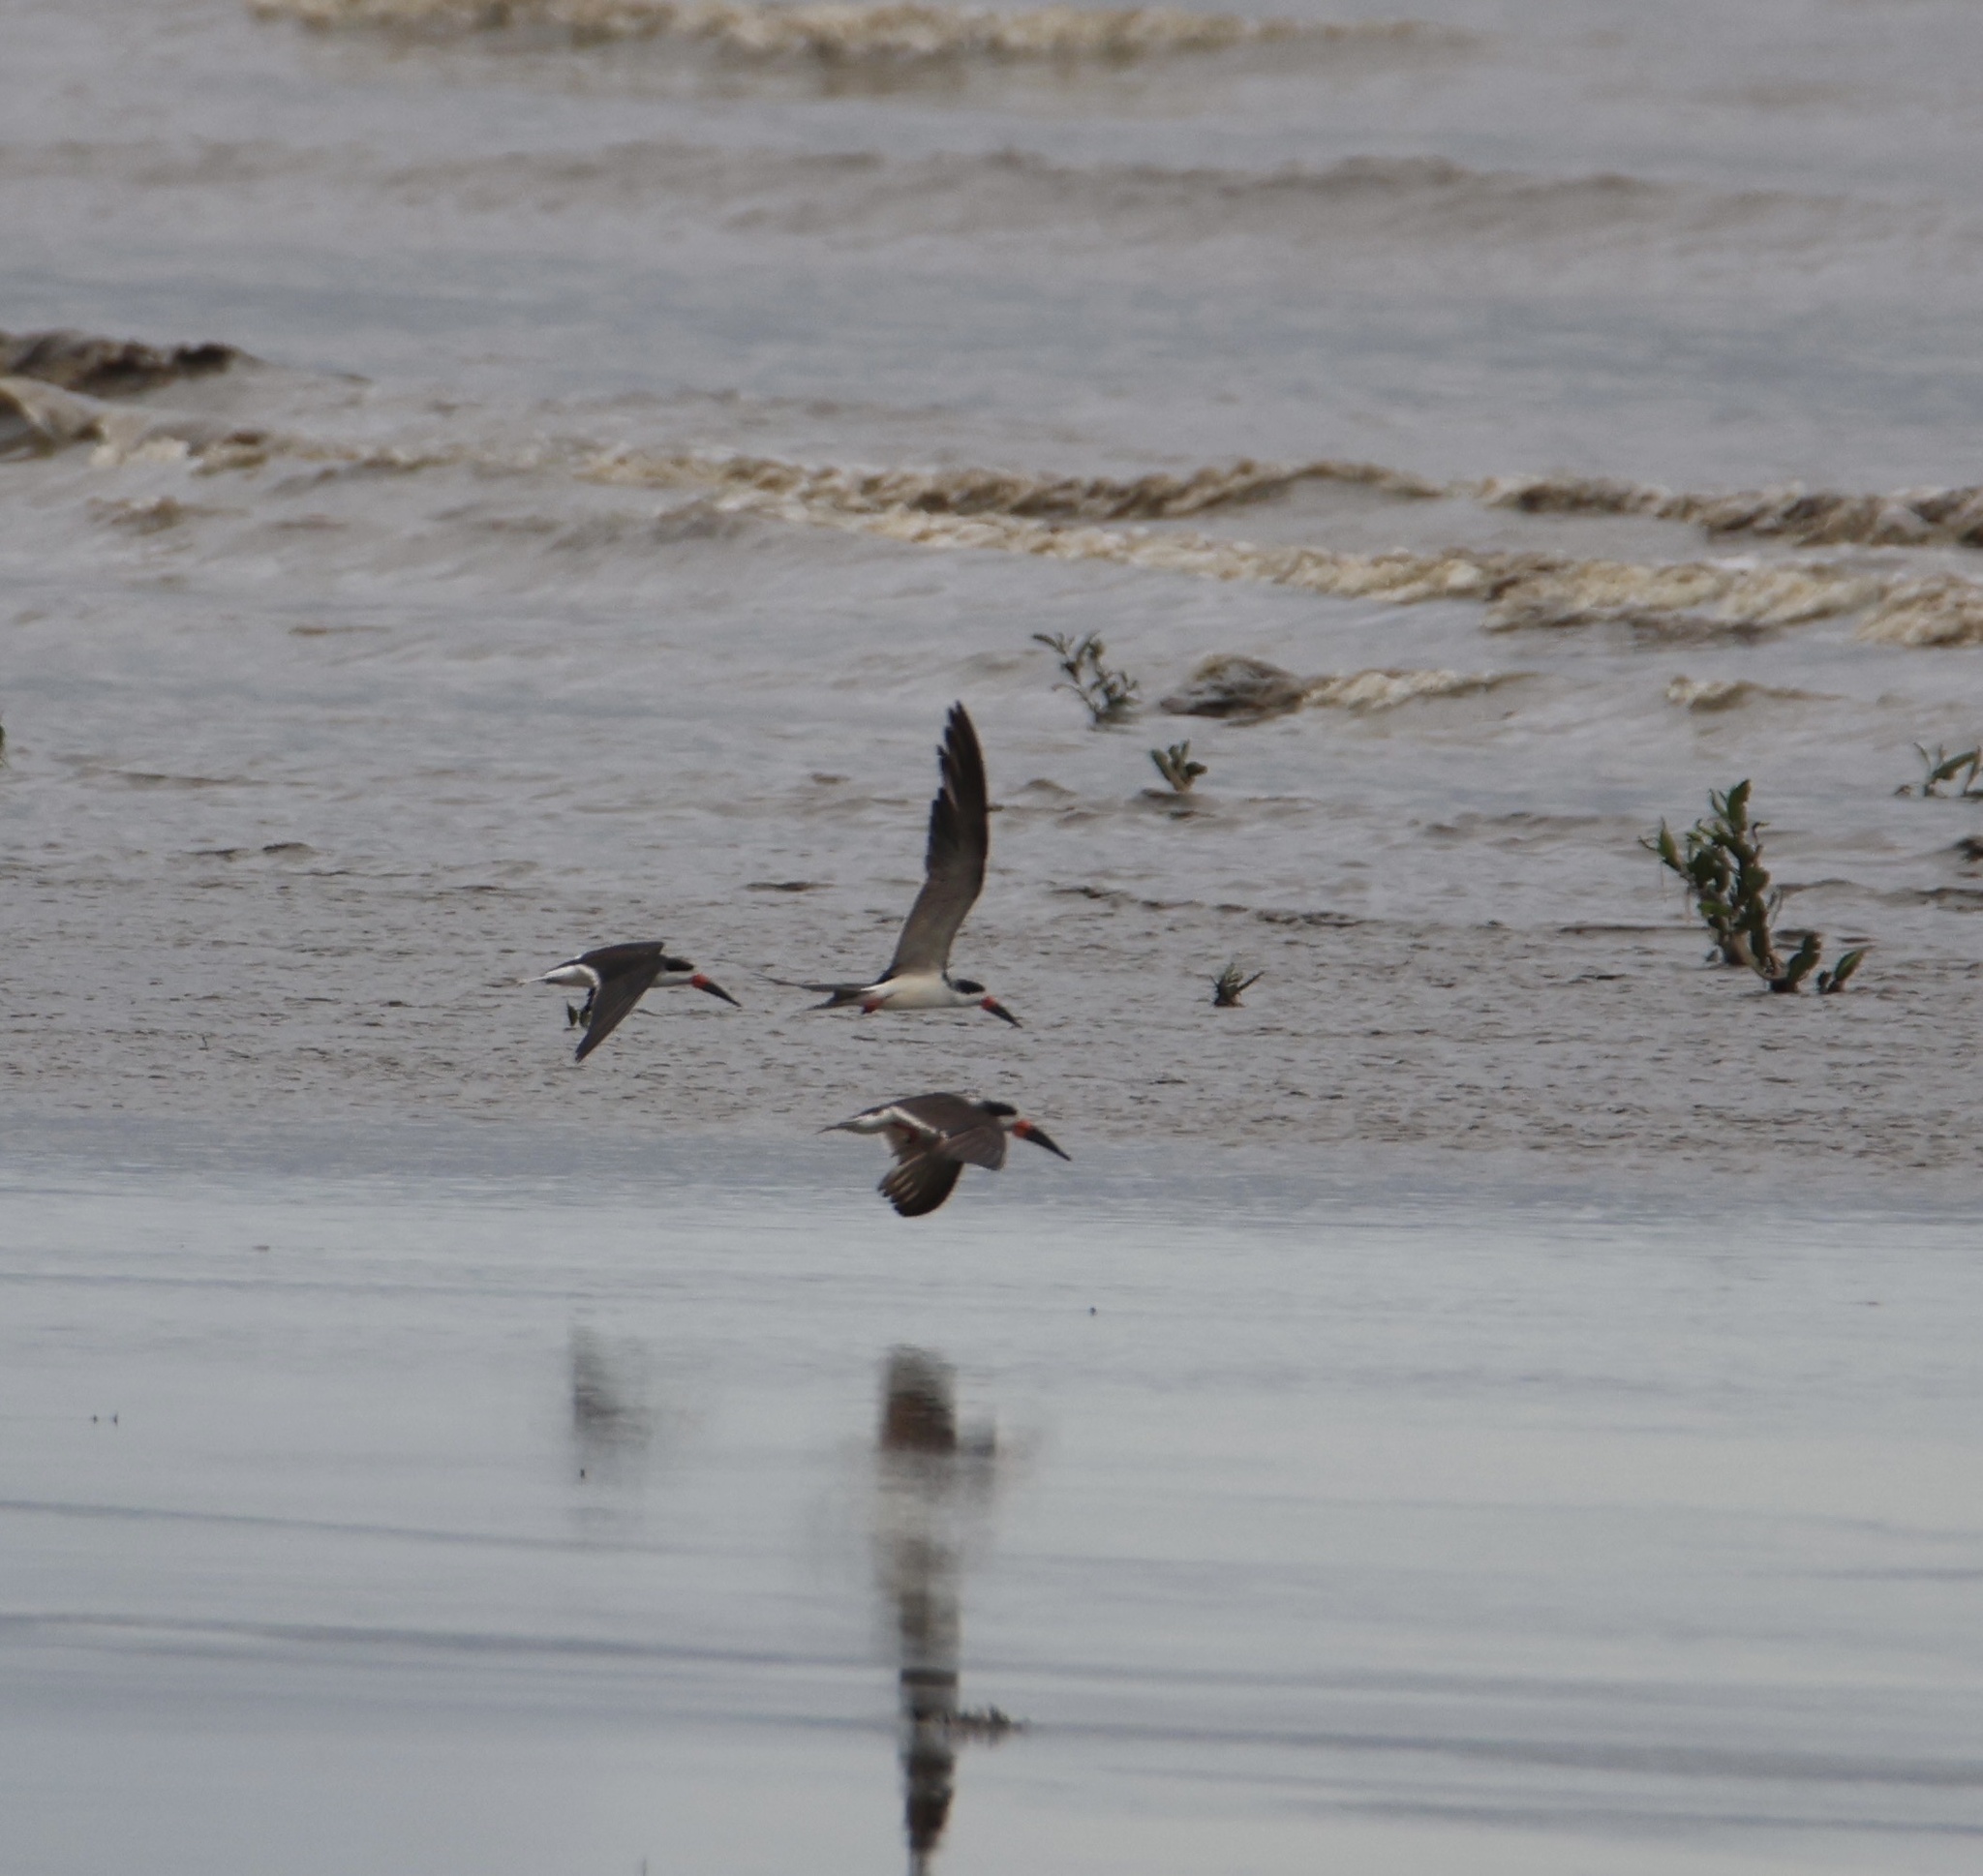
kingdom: Animalia
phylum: Chordata
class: Aves
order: Charadriiformes
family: Laridae
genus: Rynchops
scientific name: Rynchops niger
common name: Black skimmer
